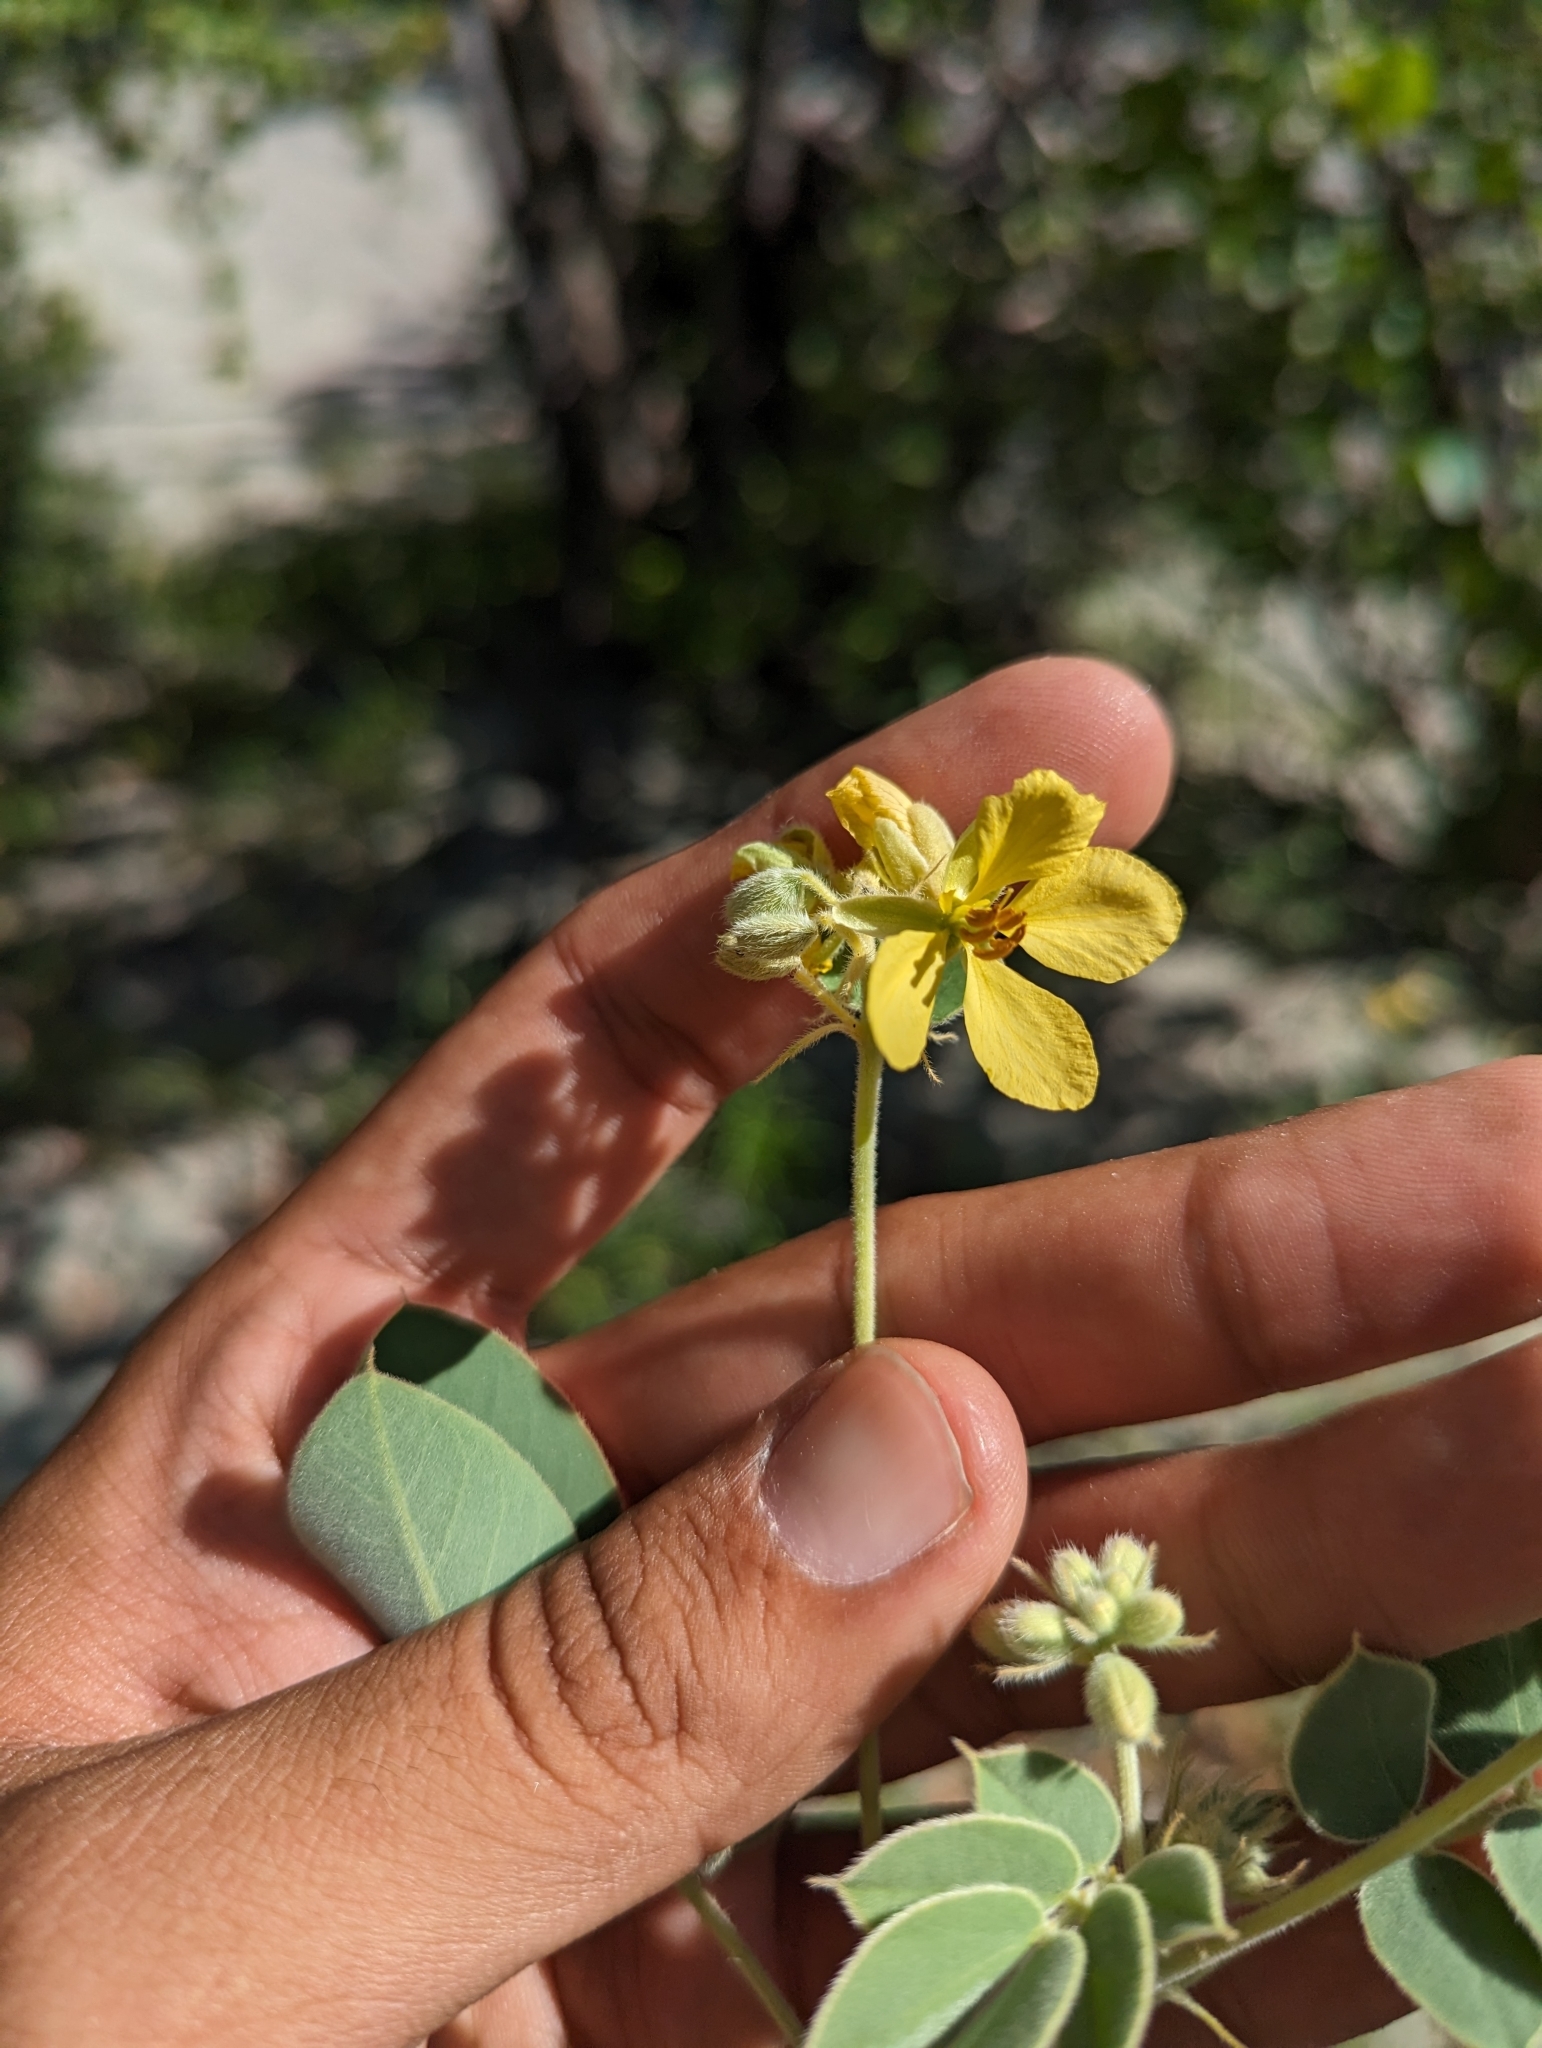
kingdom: Plantae
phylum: Tracheophyta
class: Magnoliopsida
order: Fabales
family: Fabaceae
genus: Senna
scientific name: Senna confinis
